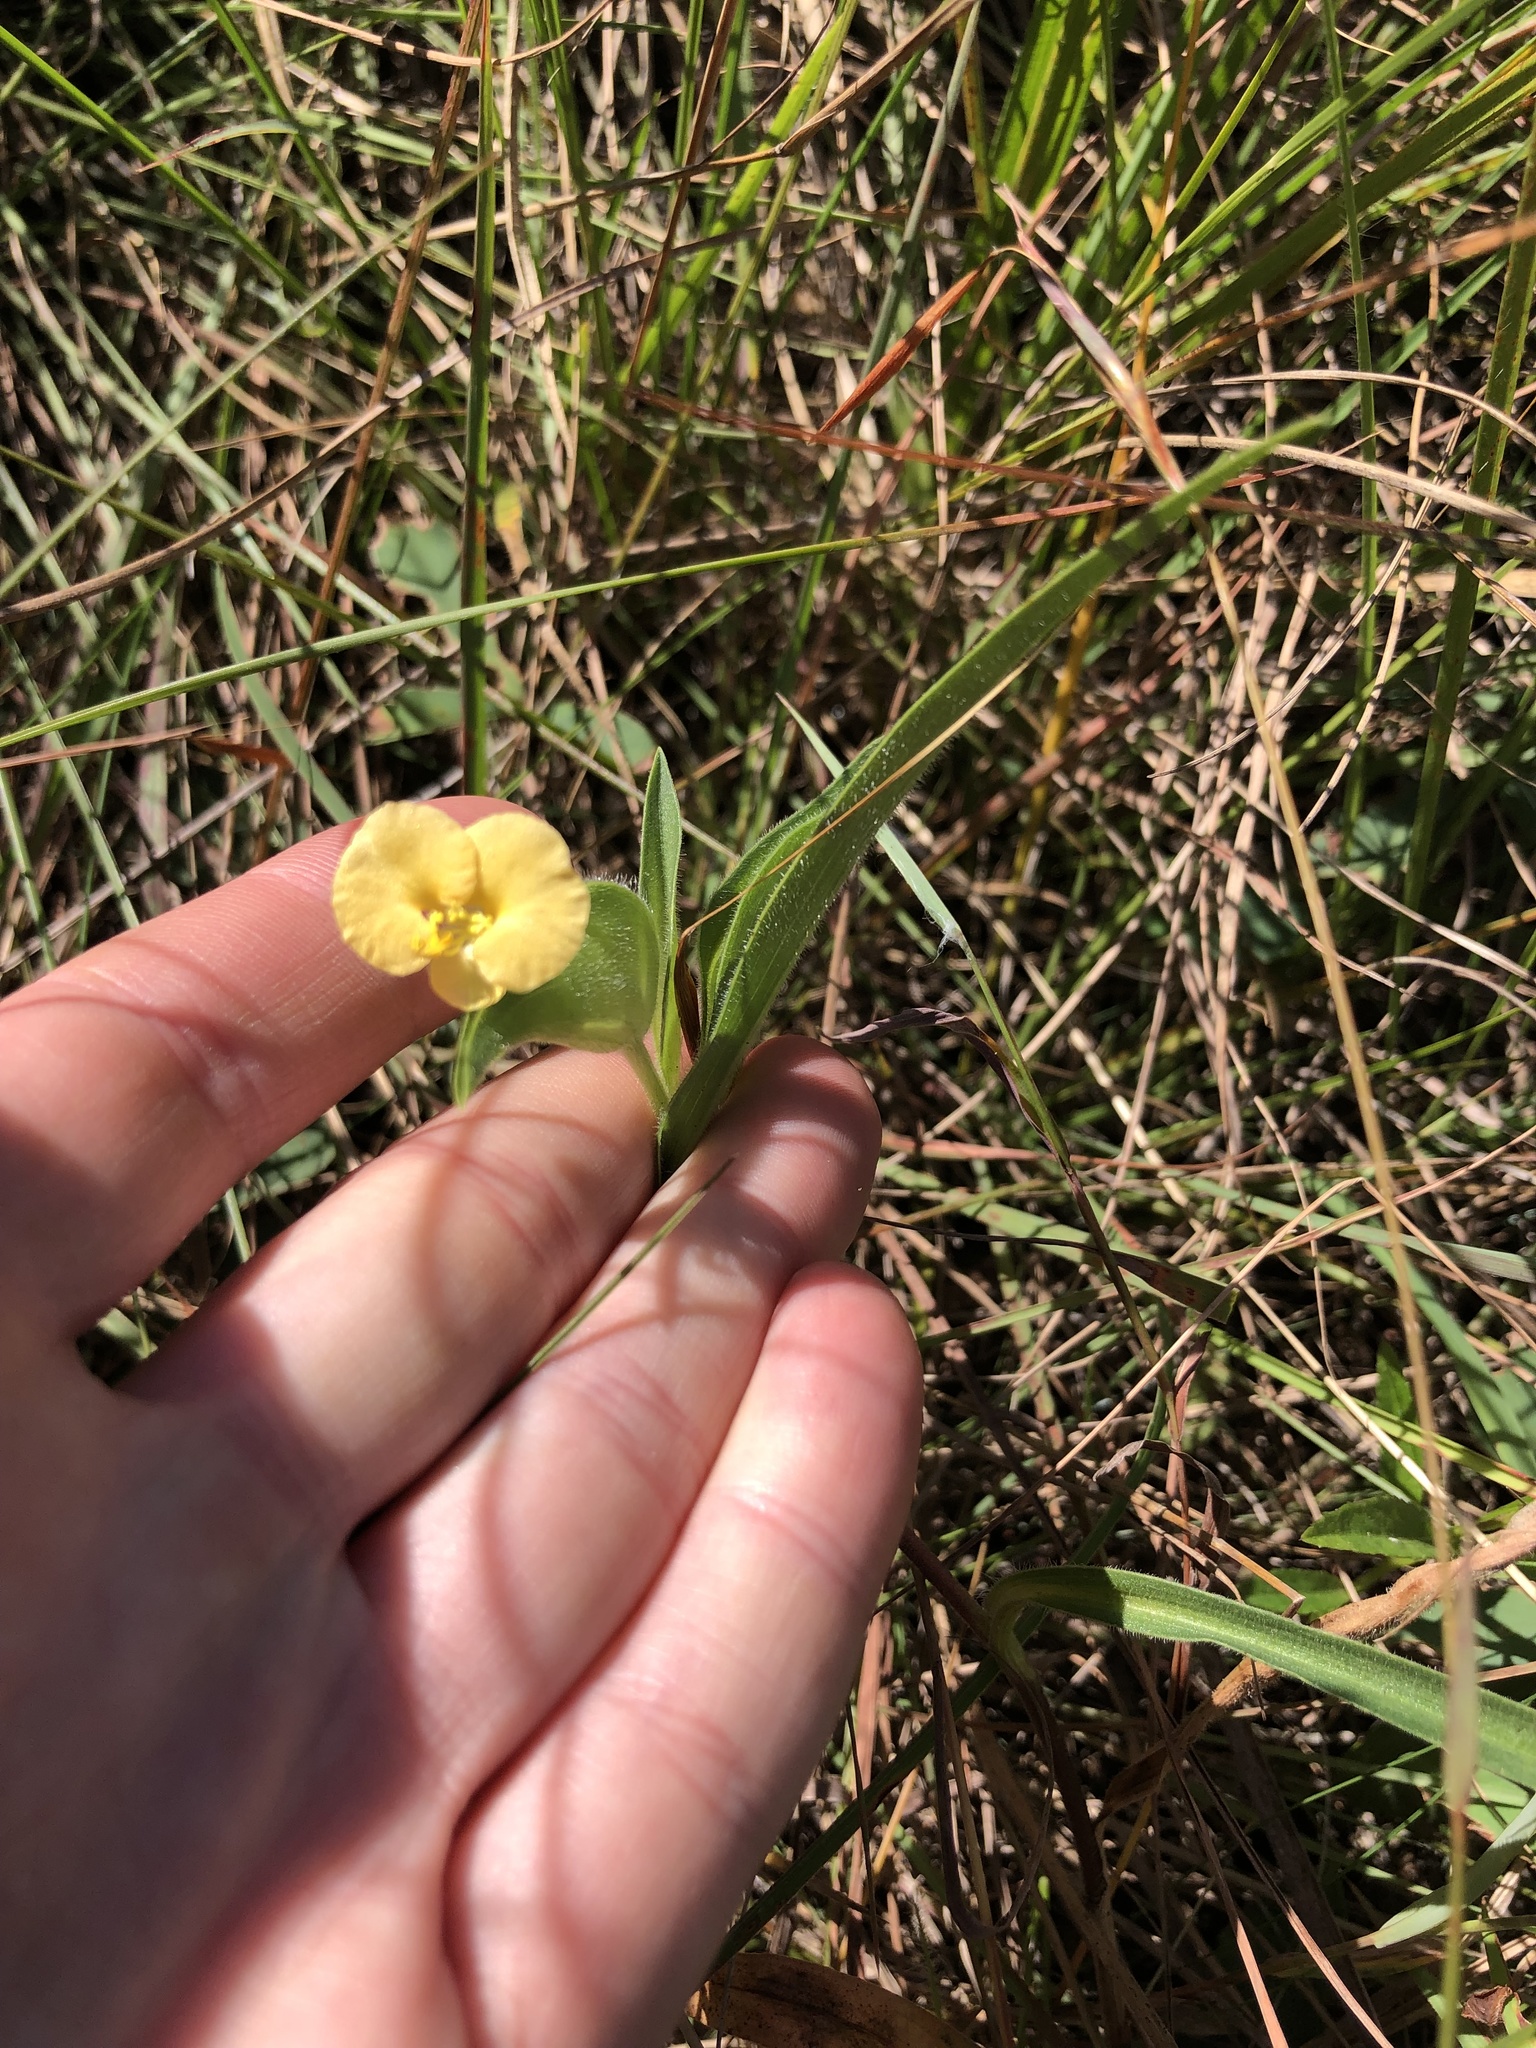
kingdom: Plantae
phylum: Tracheophyta
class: Liliopsida
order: Commelinales
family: Commelinaceae
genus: Commelina
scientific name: Commelina africana
